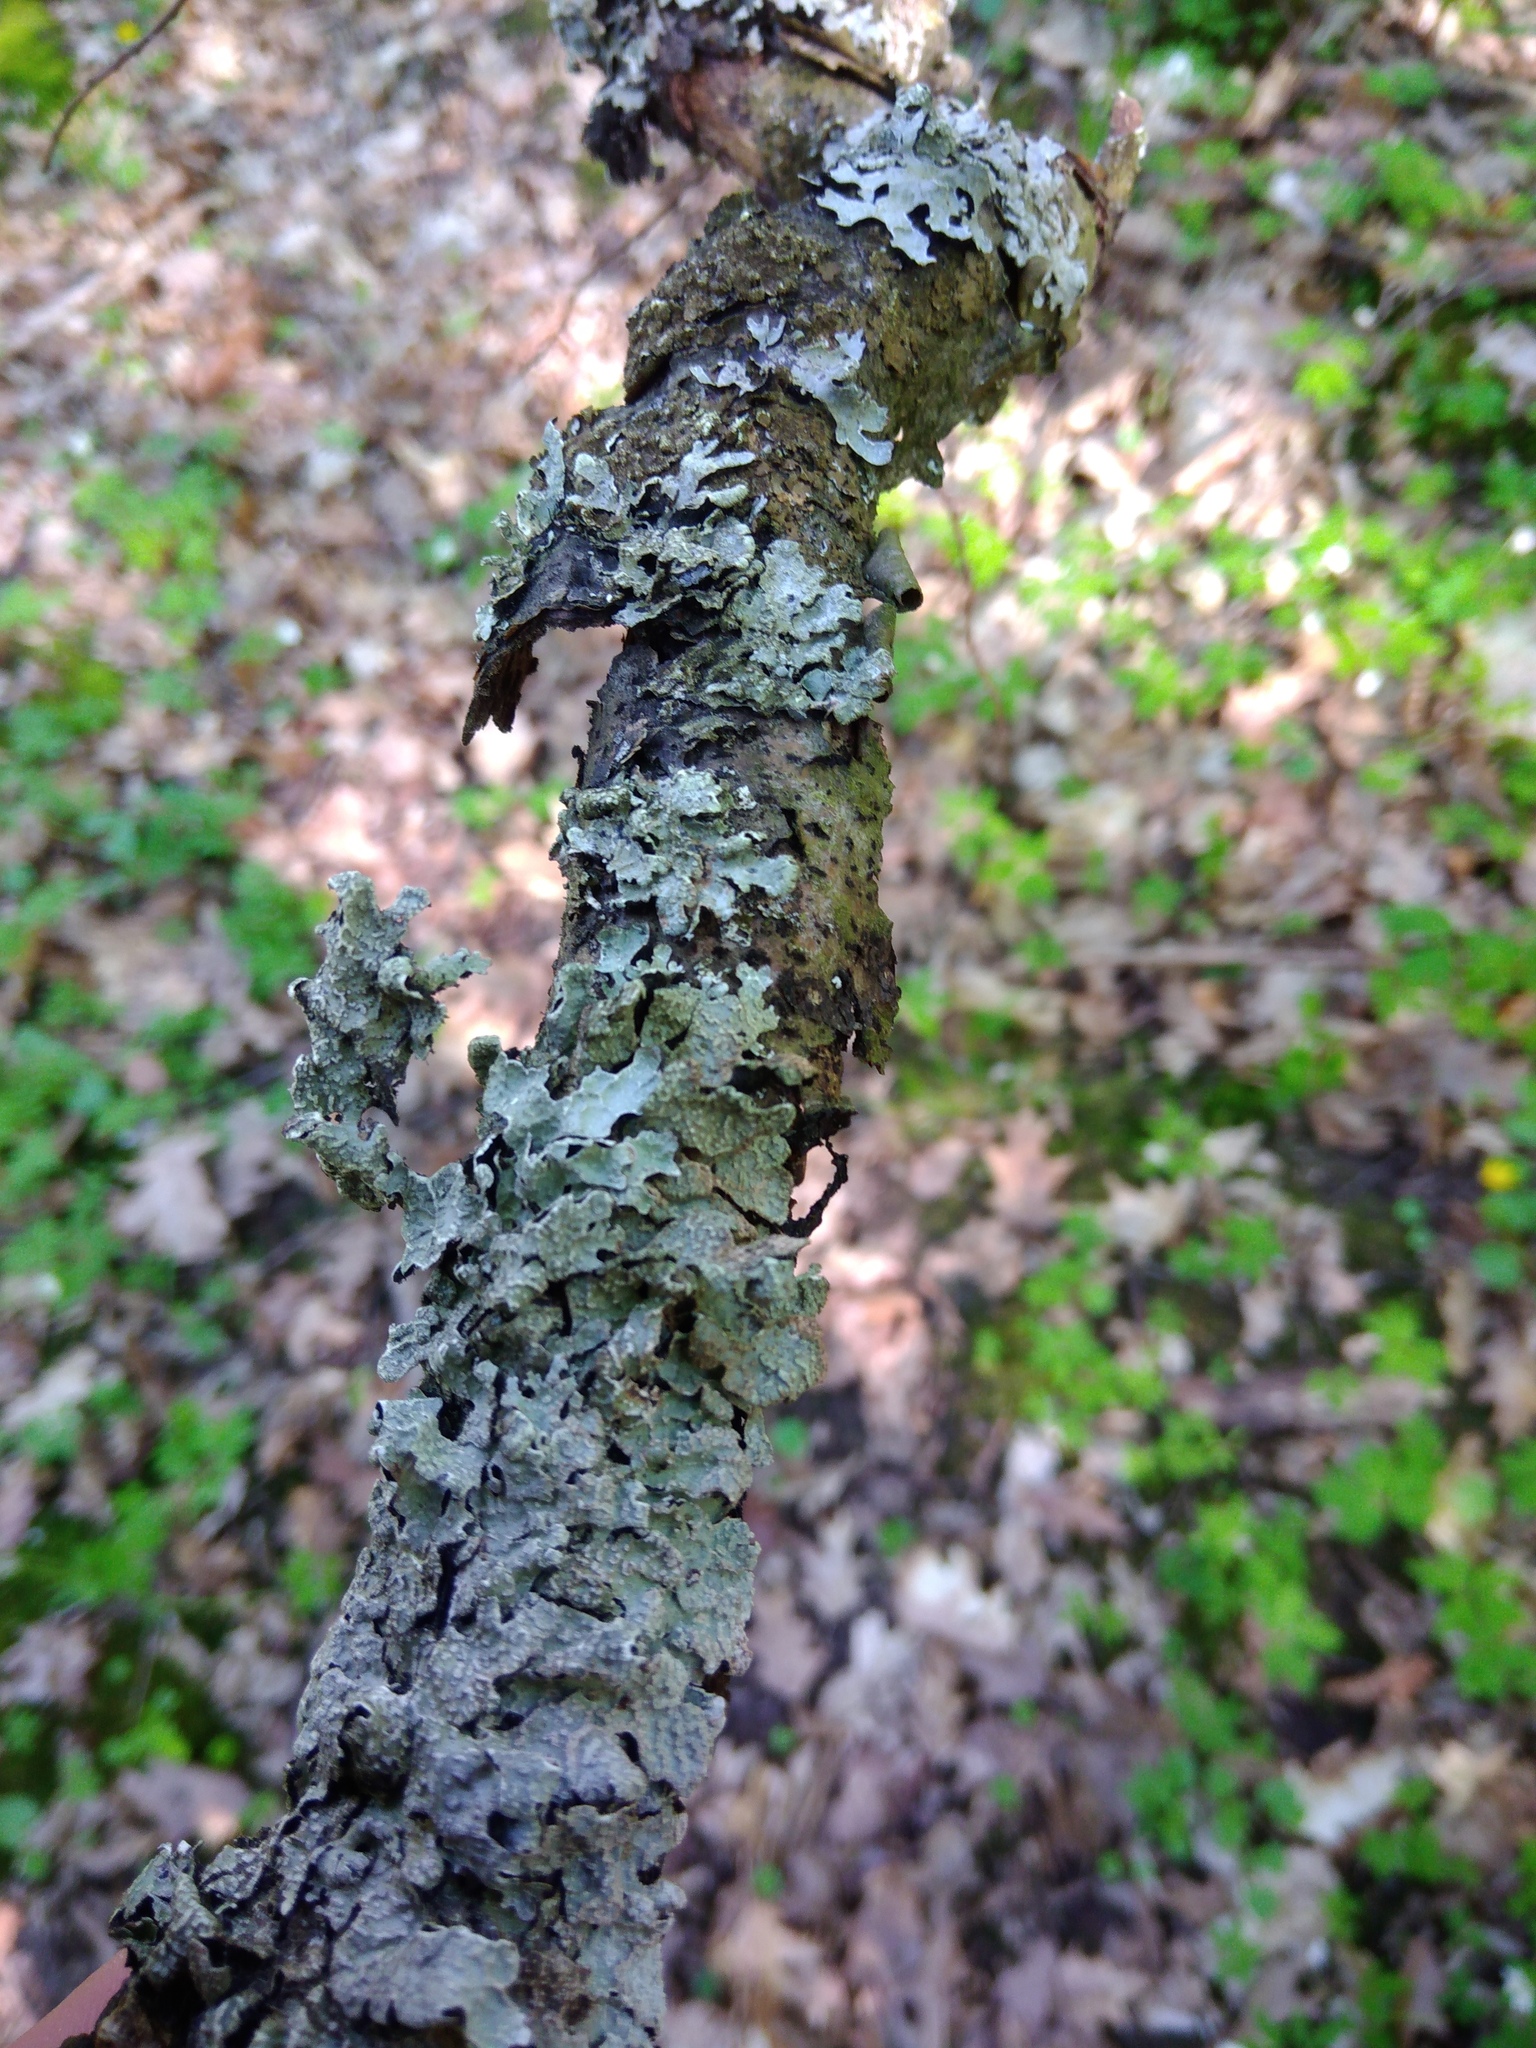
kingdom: Fungi
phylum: Ascomycota
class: Lecanoromycetes
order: Lecanorales
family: Parmeliaceae
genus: Parmelia
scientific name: Parmelia sulcata
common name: Netted shield lichen
